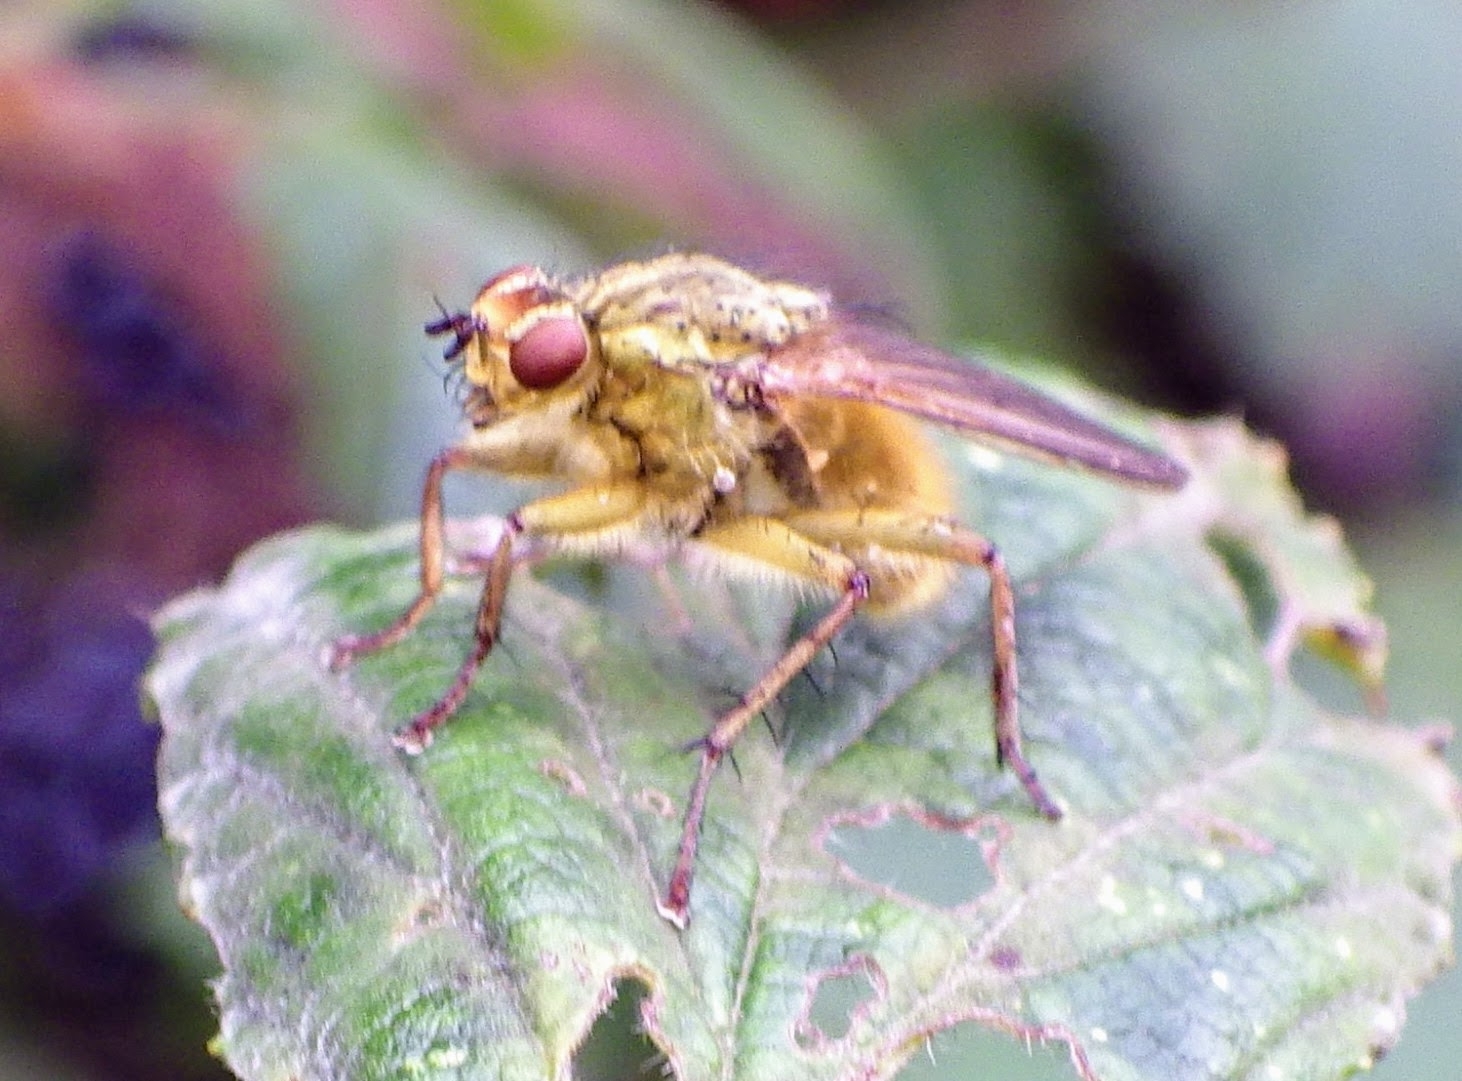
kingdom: Animalia
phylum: Arthropoda
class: Insecta
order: Diptera
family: Scathophagidae
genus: Scathophaga
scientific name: Scathophaga stercoraria
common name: Yellow dung fly
